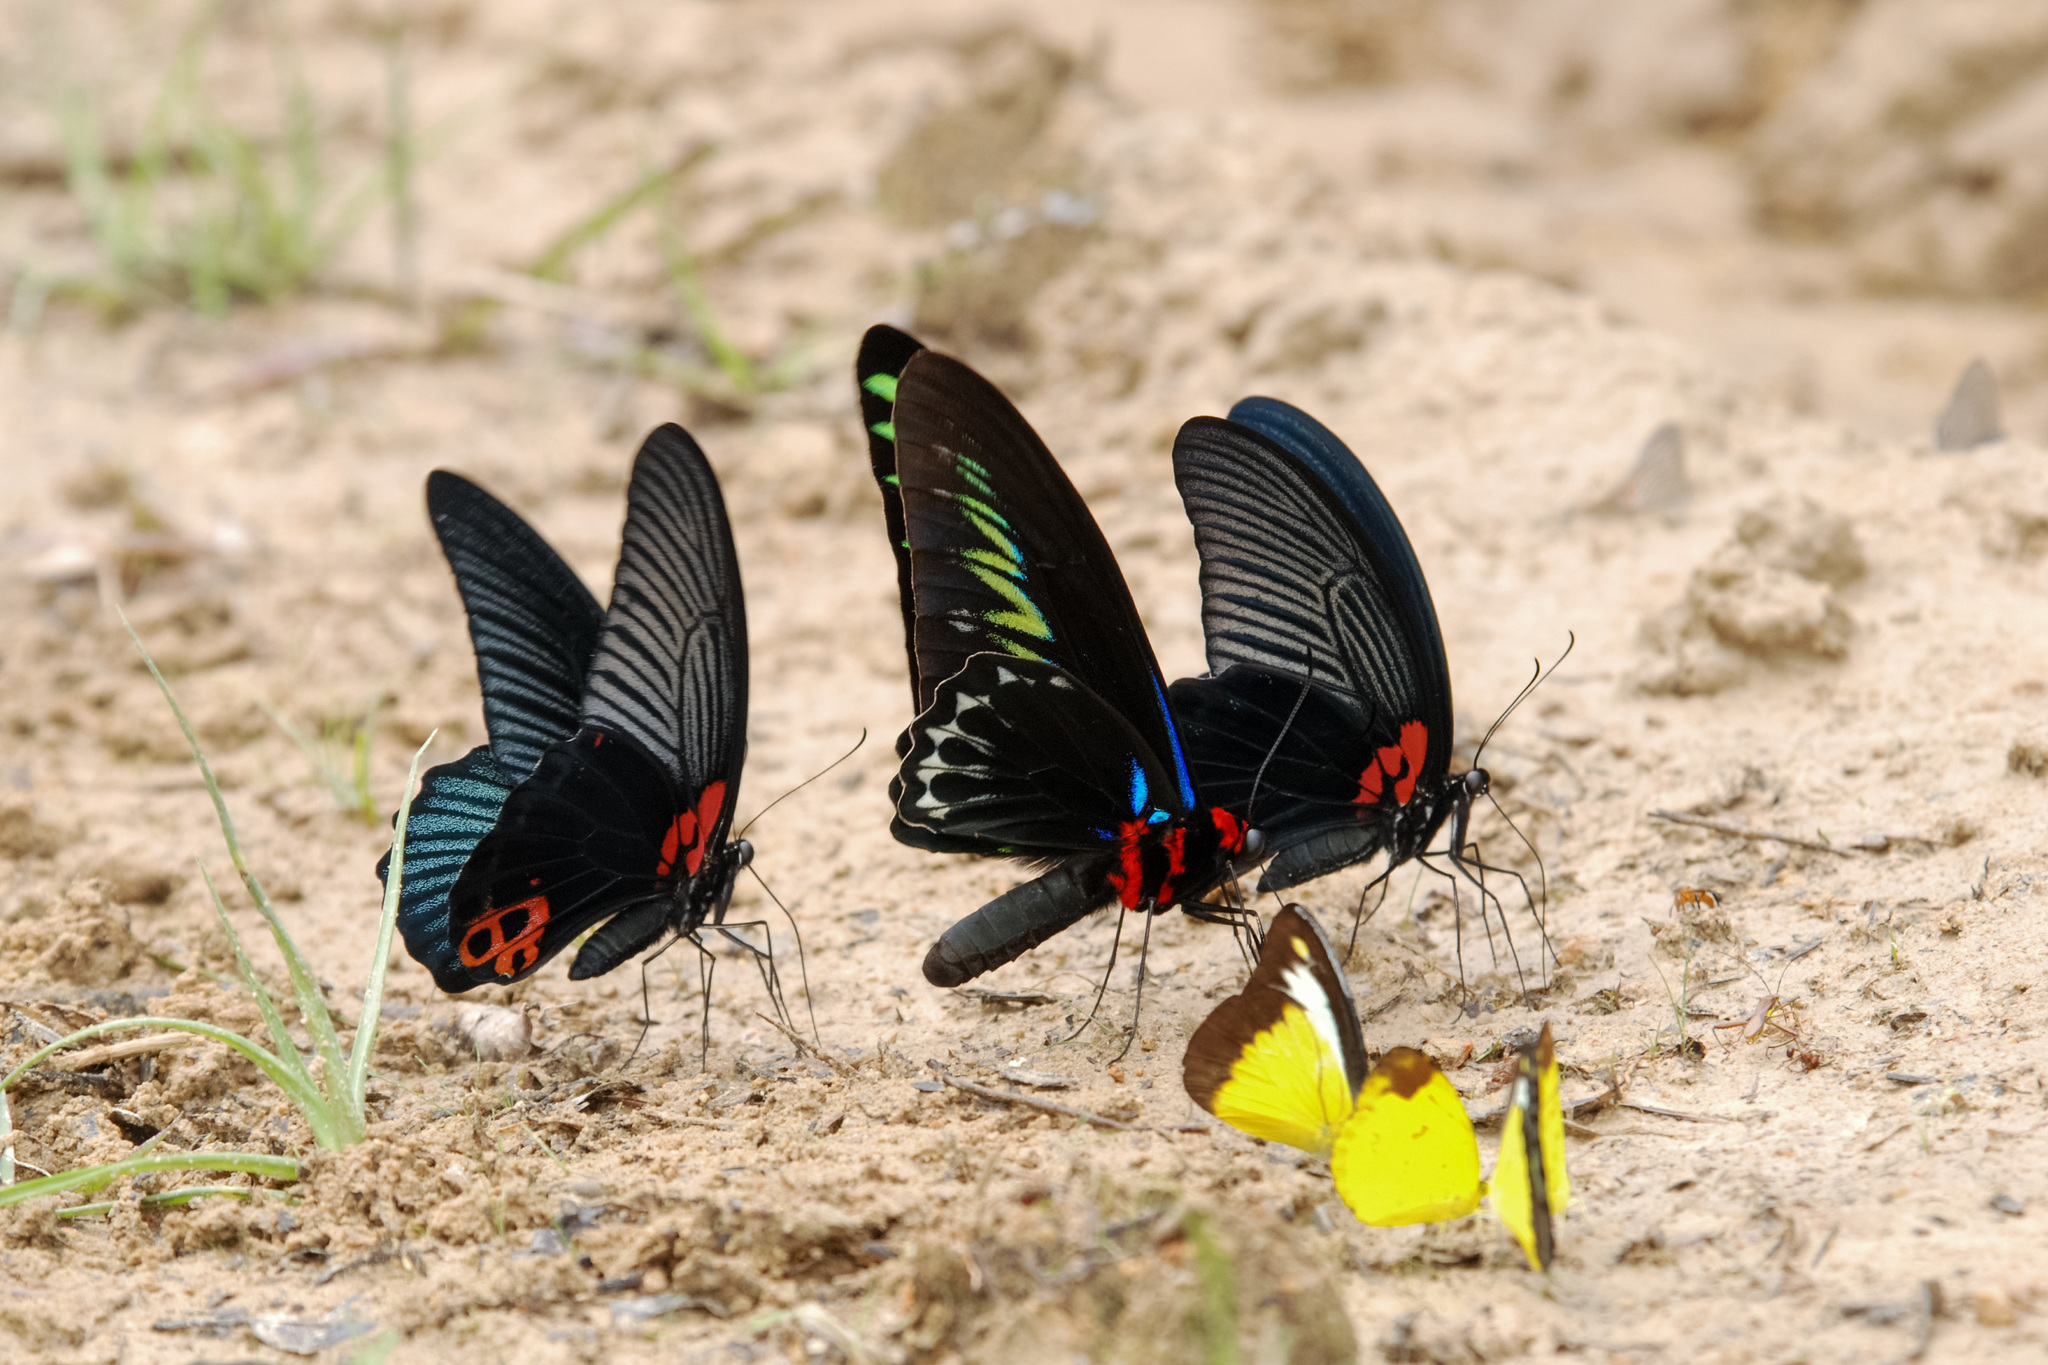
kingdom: Animalia
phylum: Arthropoda
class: Insecta
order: Lepidoptera
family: Papilionidae
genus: Trogonoptera
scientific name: Trogonoptera brookiana
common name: Raja brooke's birdwing
